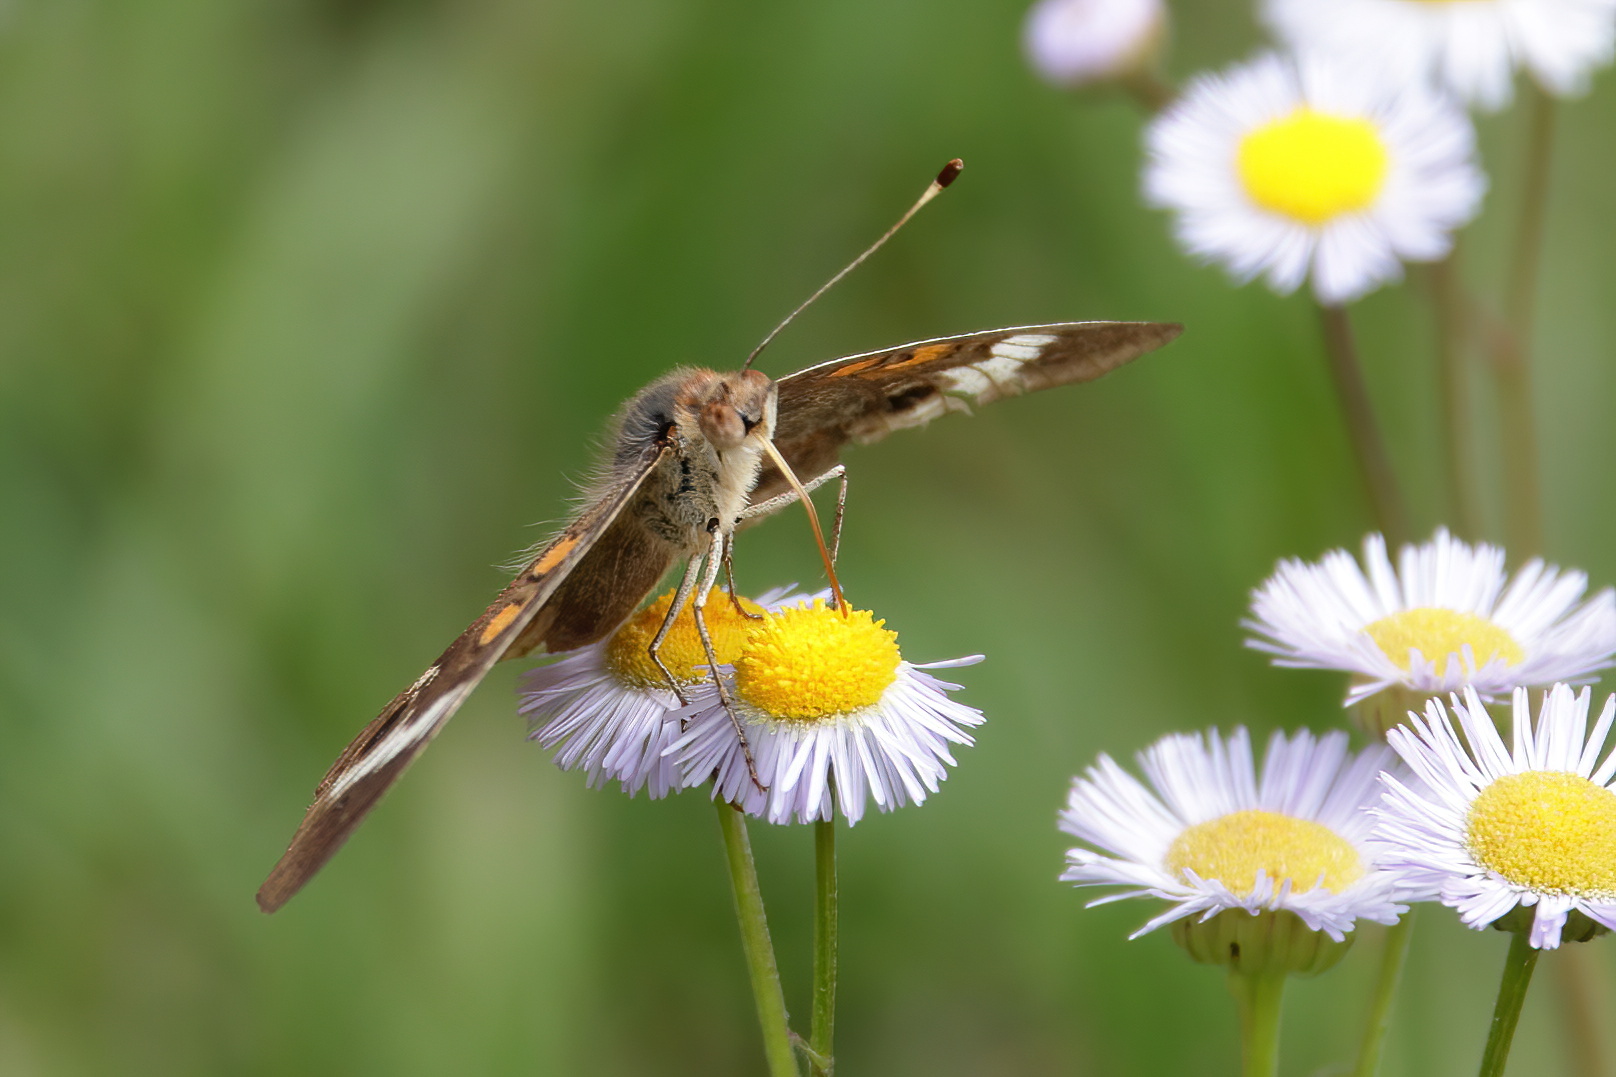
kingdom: Animalia
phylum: Arthropoda
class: Insecta
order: Lepidoptera
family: Nymphalidae
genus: Junonia
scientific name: Junonia coenia
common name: Common buckeye
